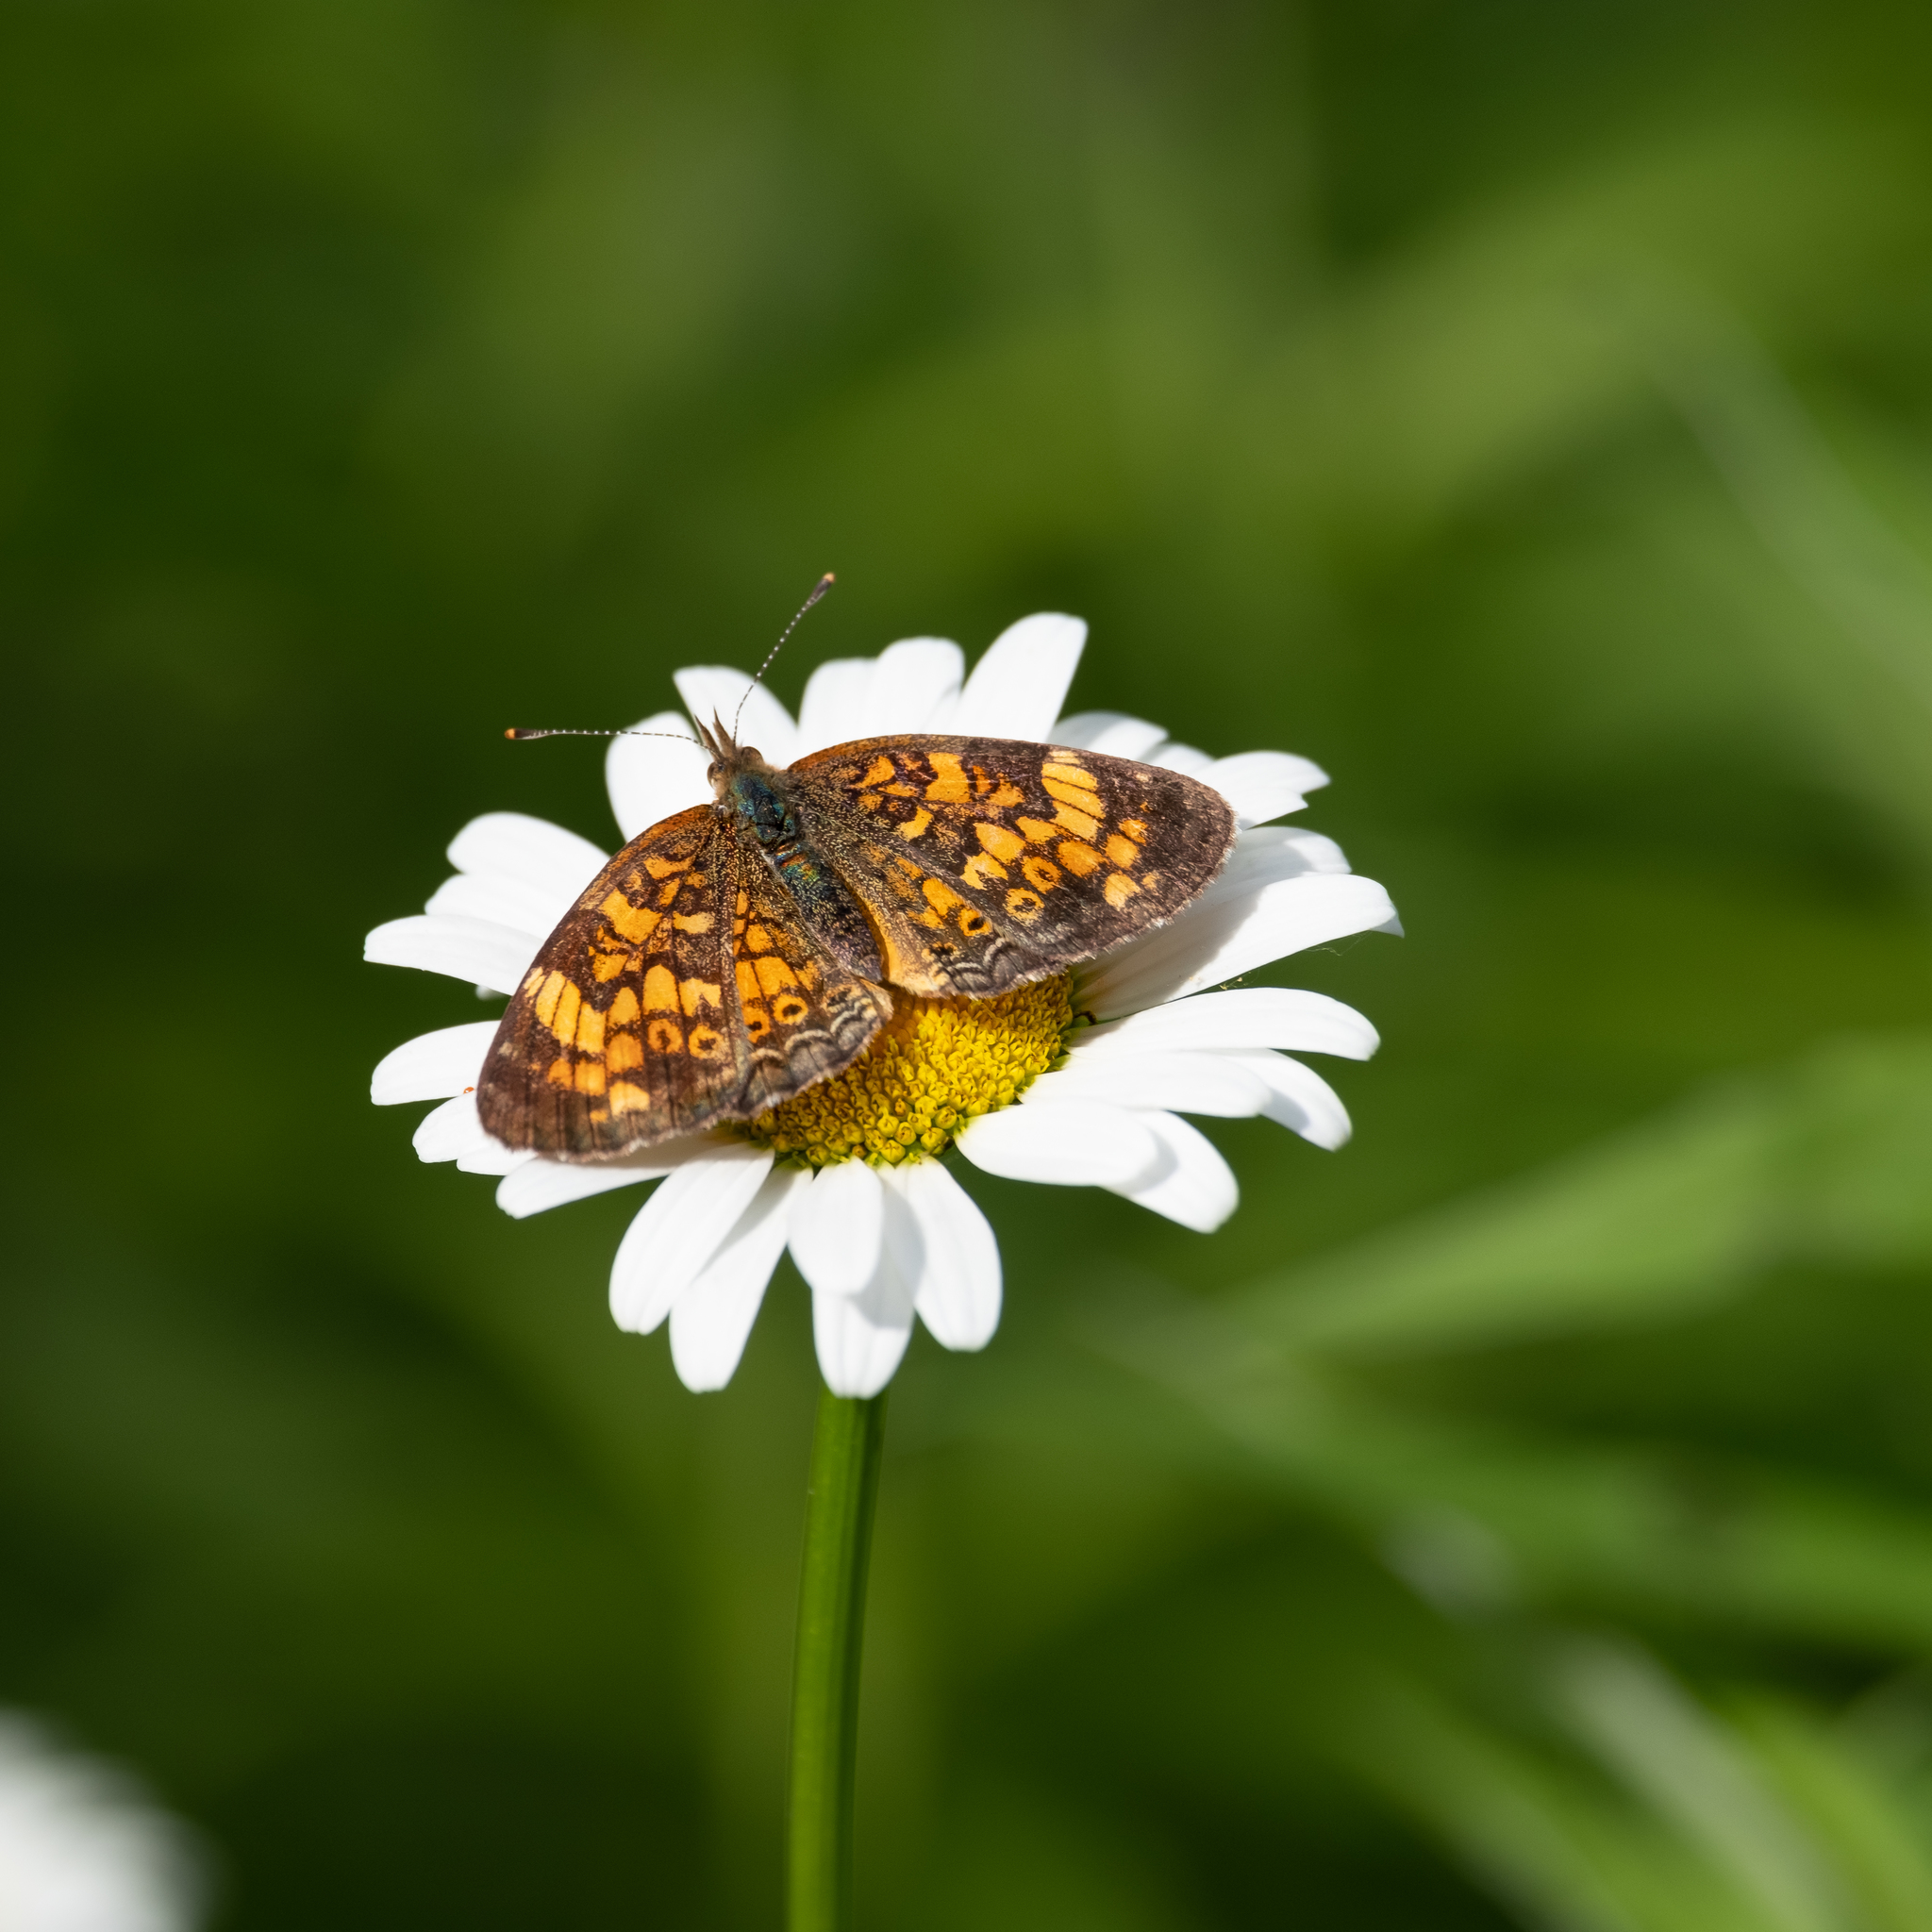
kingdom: Animalia
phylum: Arthropoda
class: Insecta
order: Lepidoptera
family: Nymphalidae
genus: Phyciodes
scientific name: Phyciodes tharos
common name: Pearl crescent
